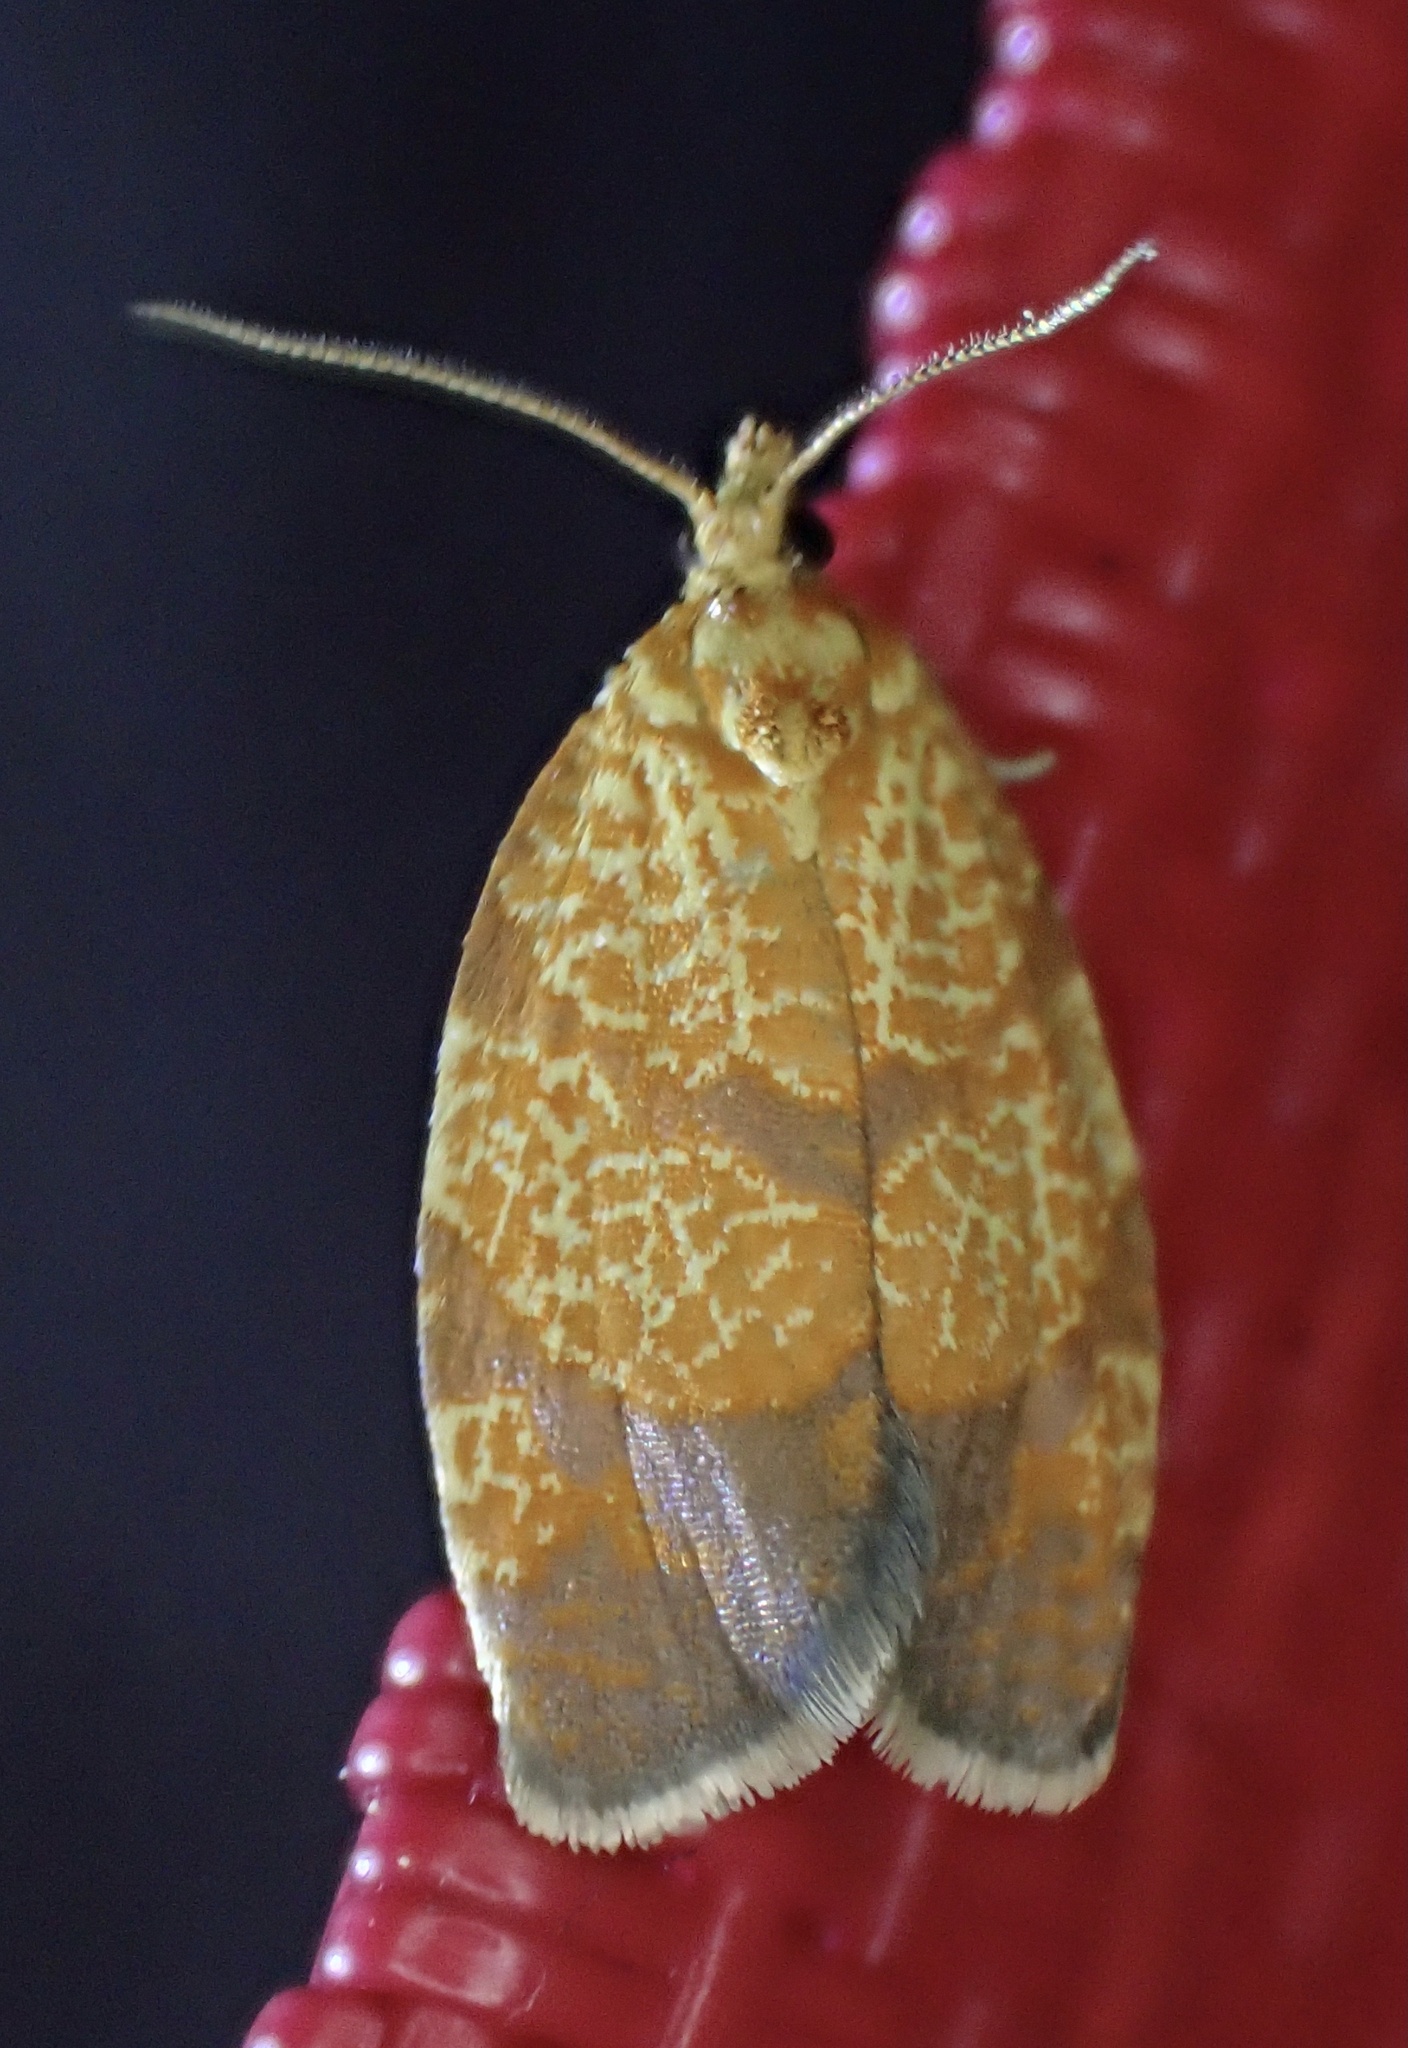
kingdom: Animalia
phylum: Arthropoda
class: Insecta
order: Lepidoptera
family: Tortricidae
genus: Argyrotaenia
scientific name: Argyrotaenia quadrifasciana
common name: Four-lined leafroller moth
